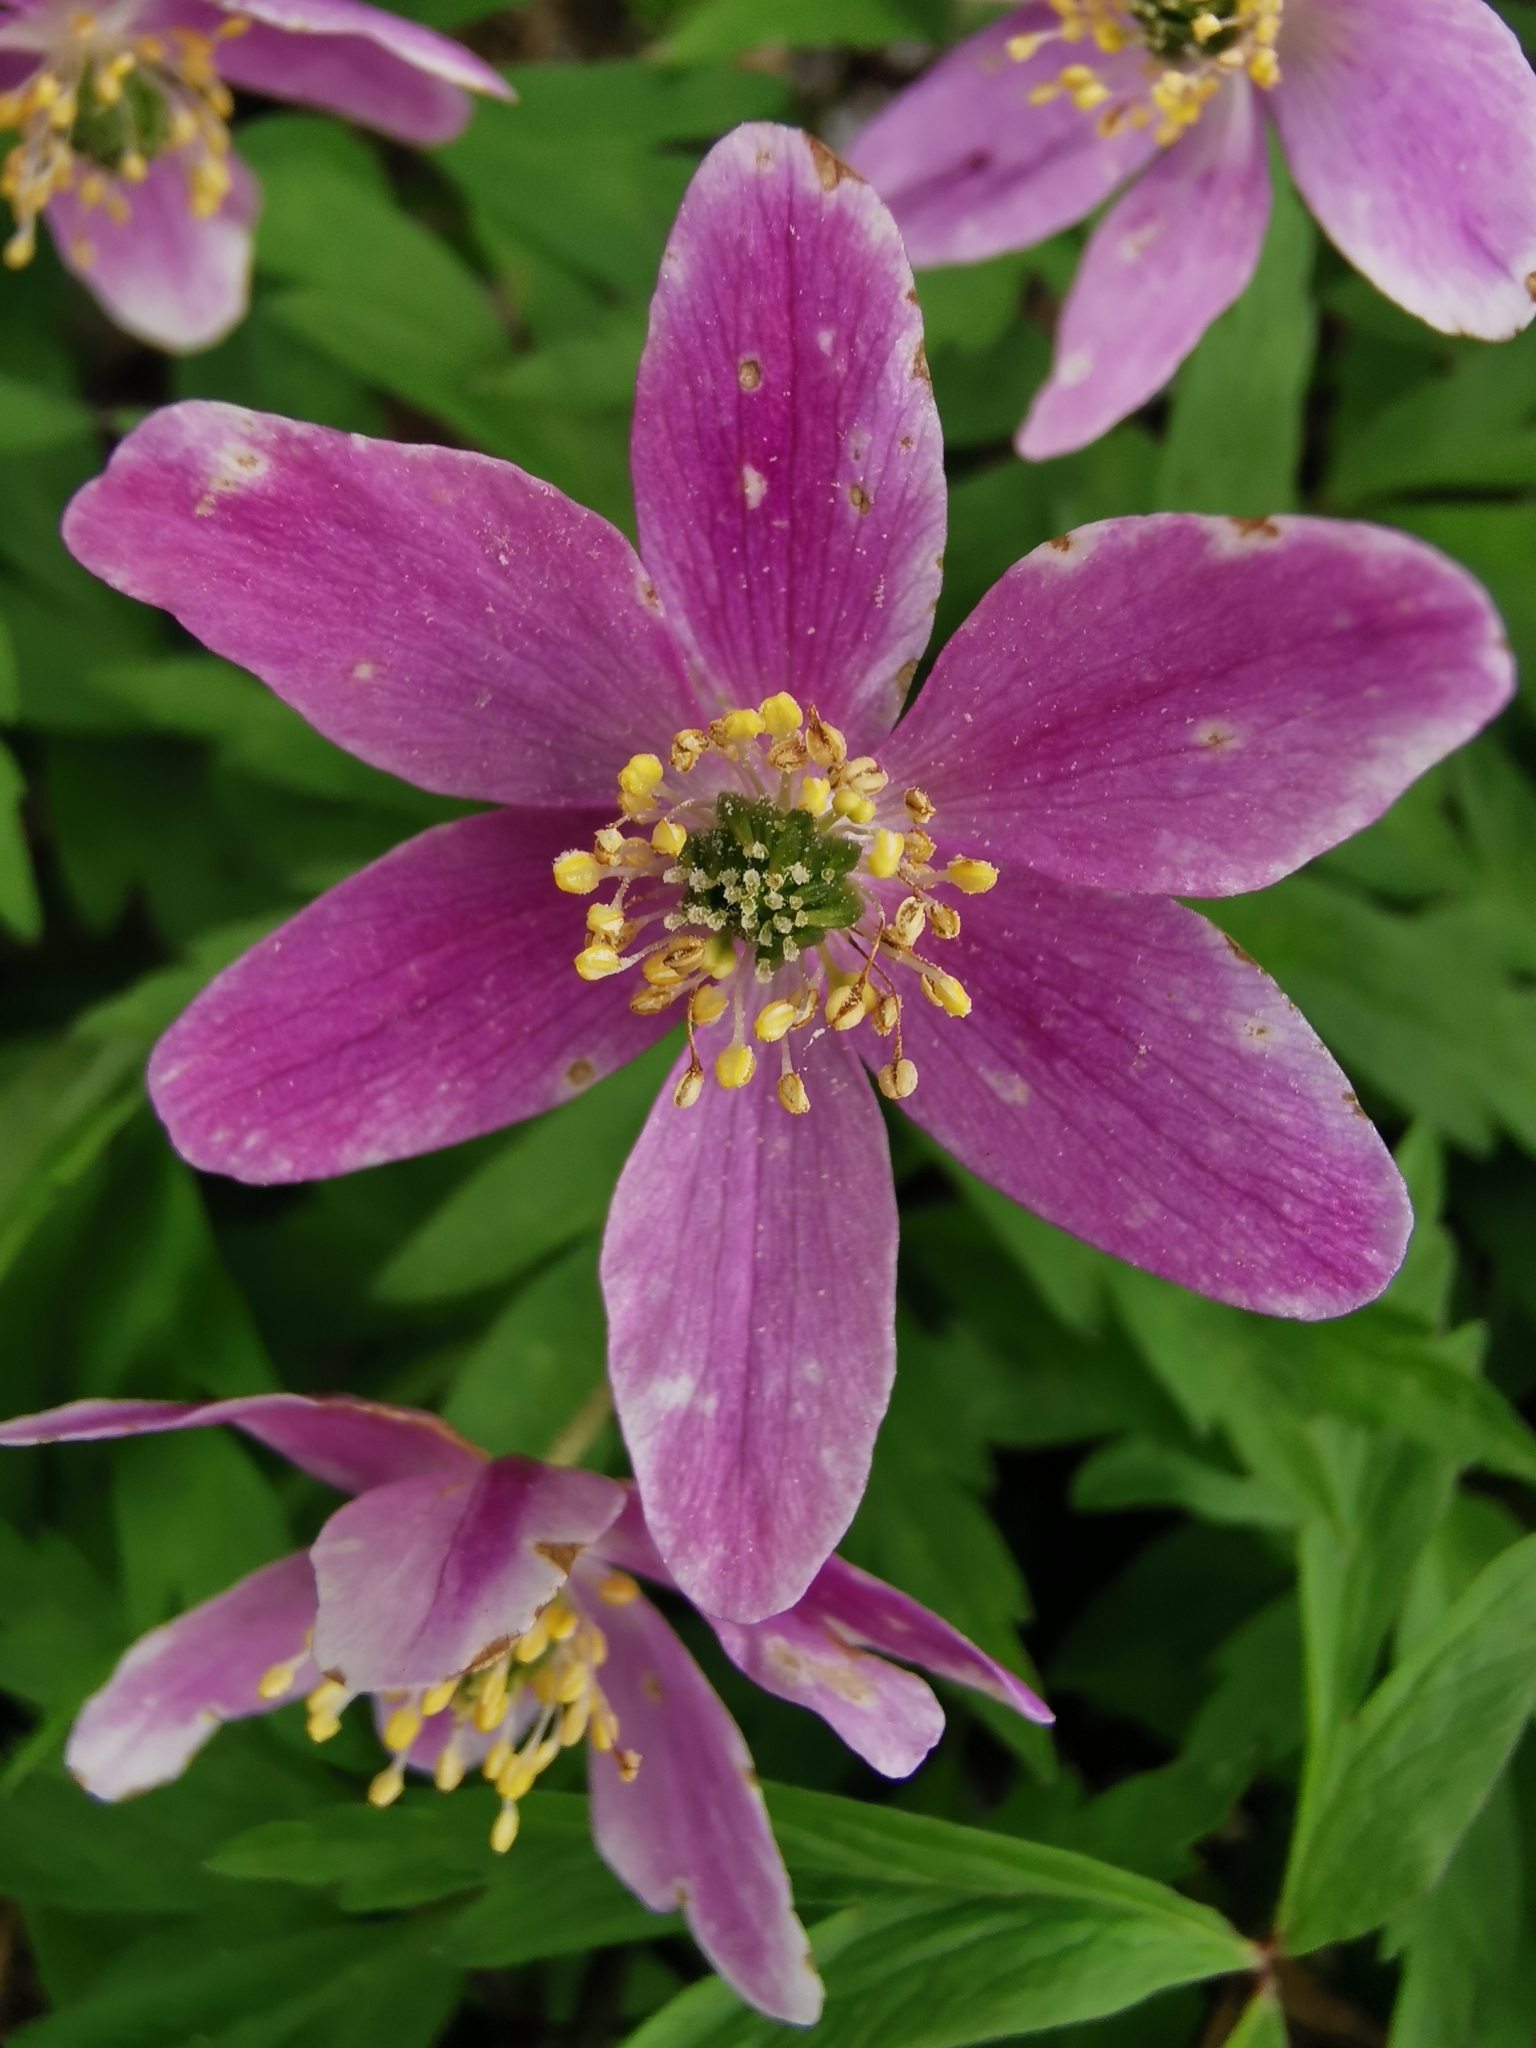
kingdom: Plantae
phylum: Tracheophyta
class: Magnoliopsida
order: Ranunculales
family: Ranunculaceae
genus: Anemone
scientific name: Anemone nemorosa
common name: Wood anemone
